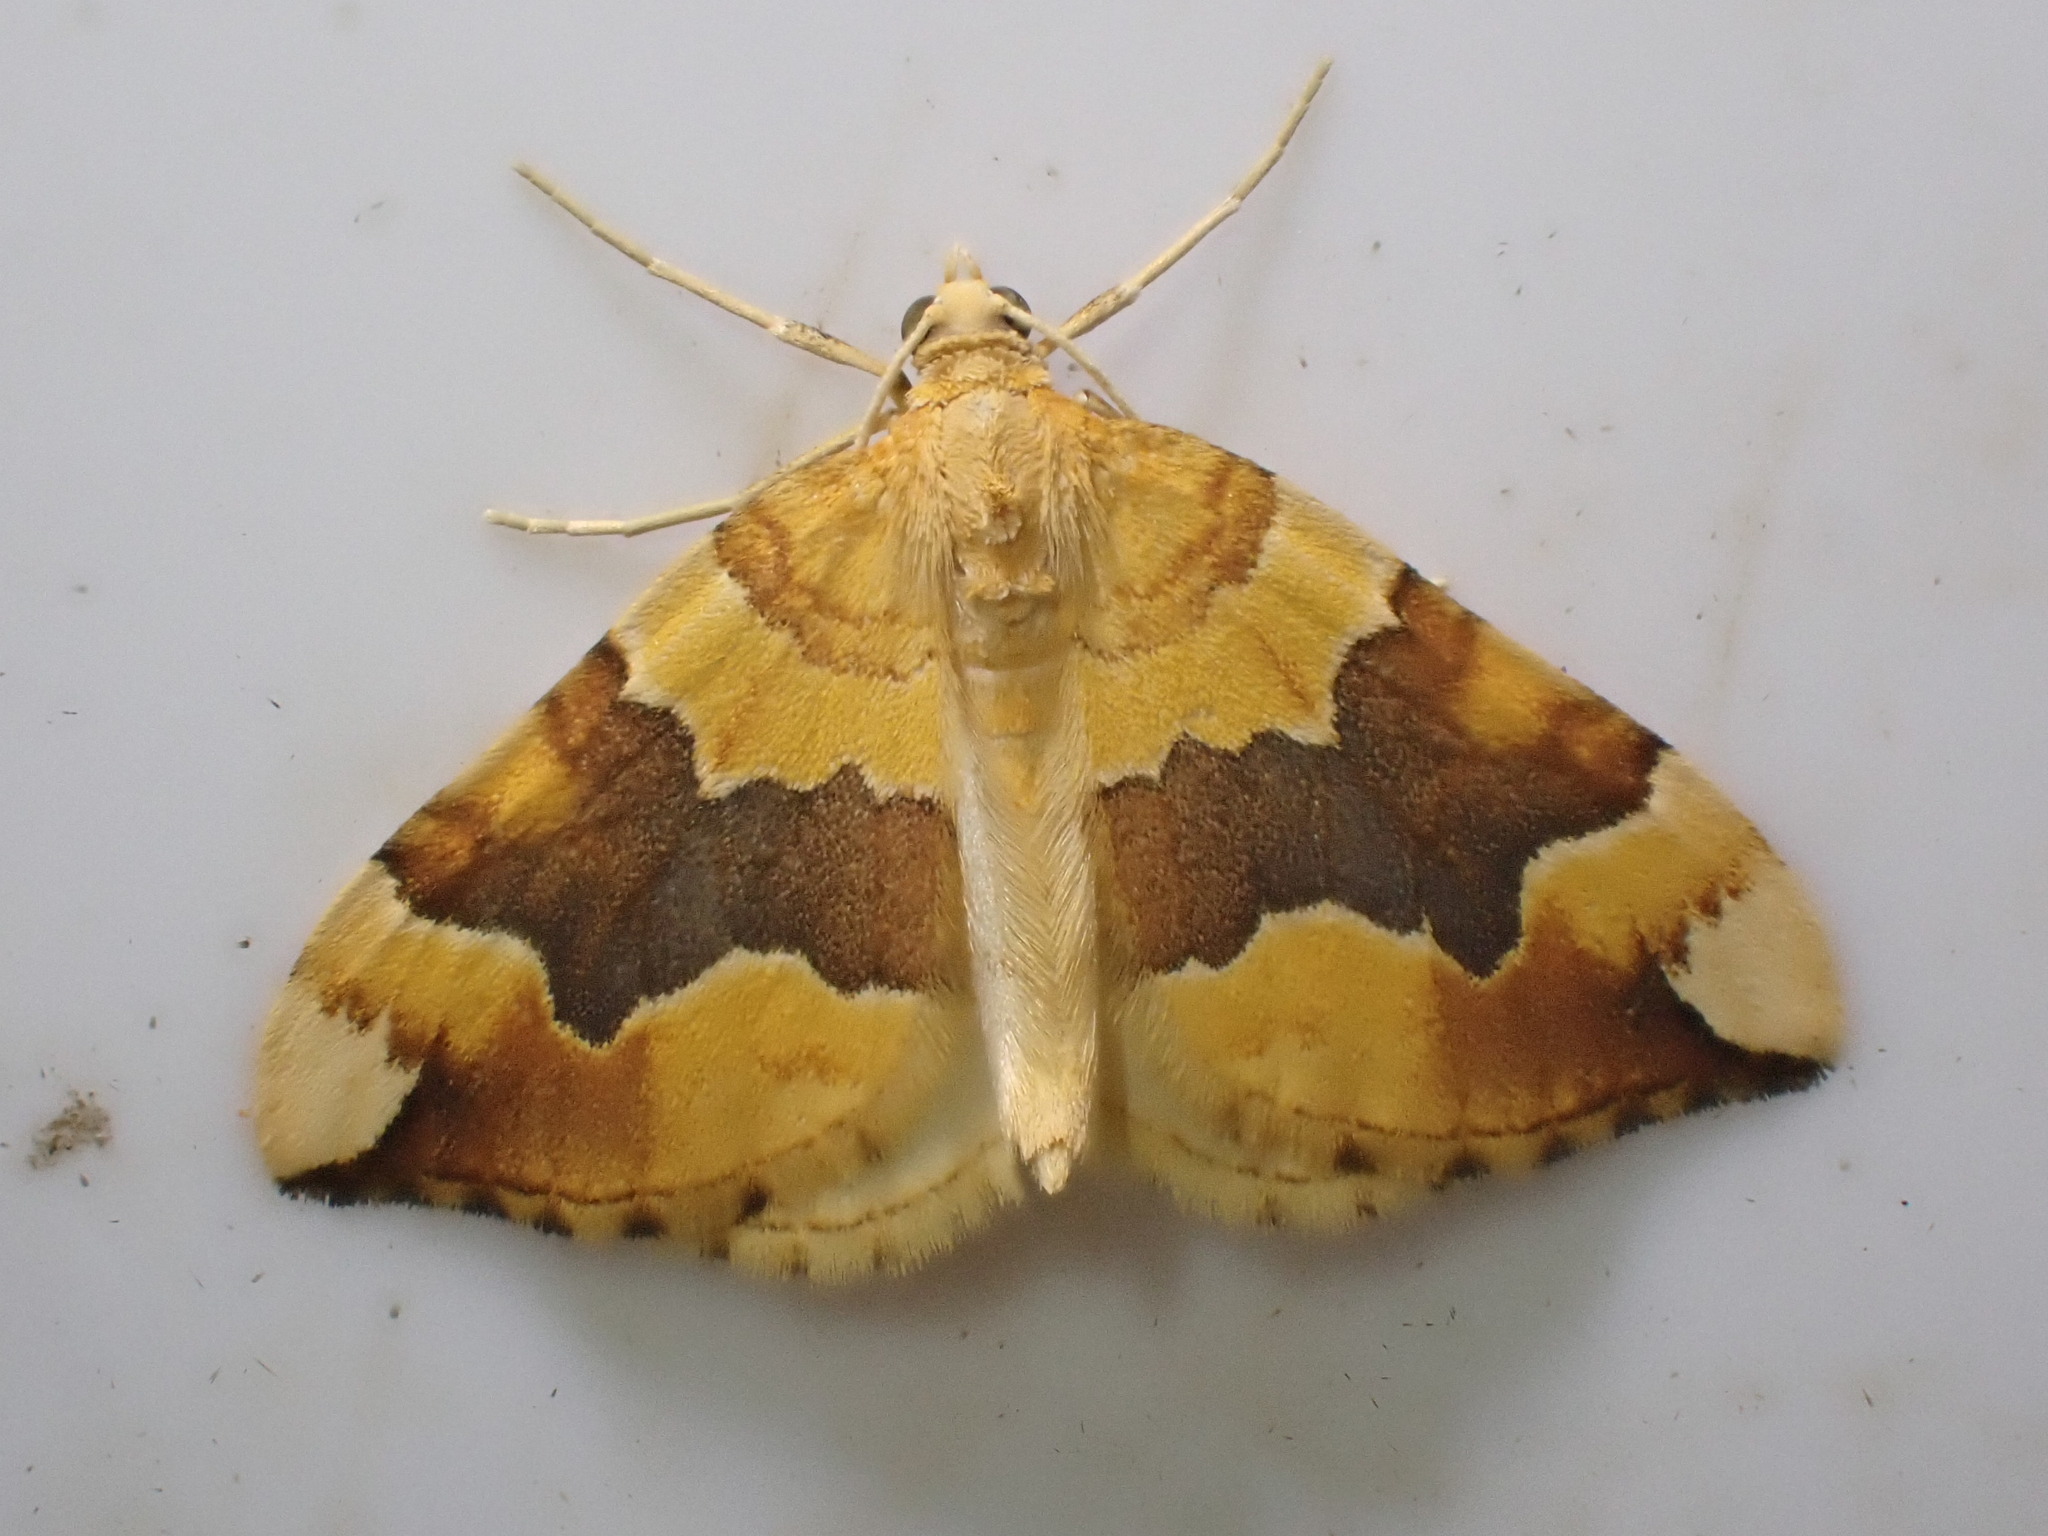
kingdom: Animalia
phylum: Arthropoda
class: Insecta
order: Lepidoptera
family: Geometridae
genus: Cidaria
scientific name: Cidaria fulvata
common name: Barred yellow
